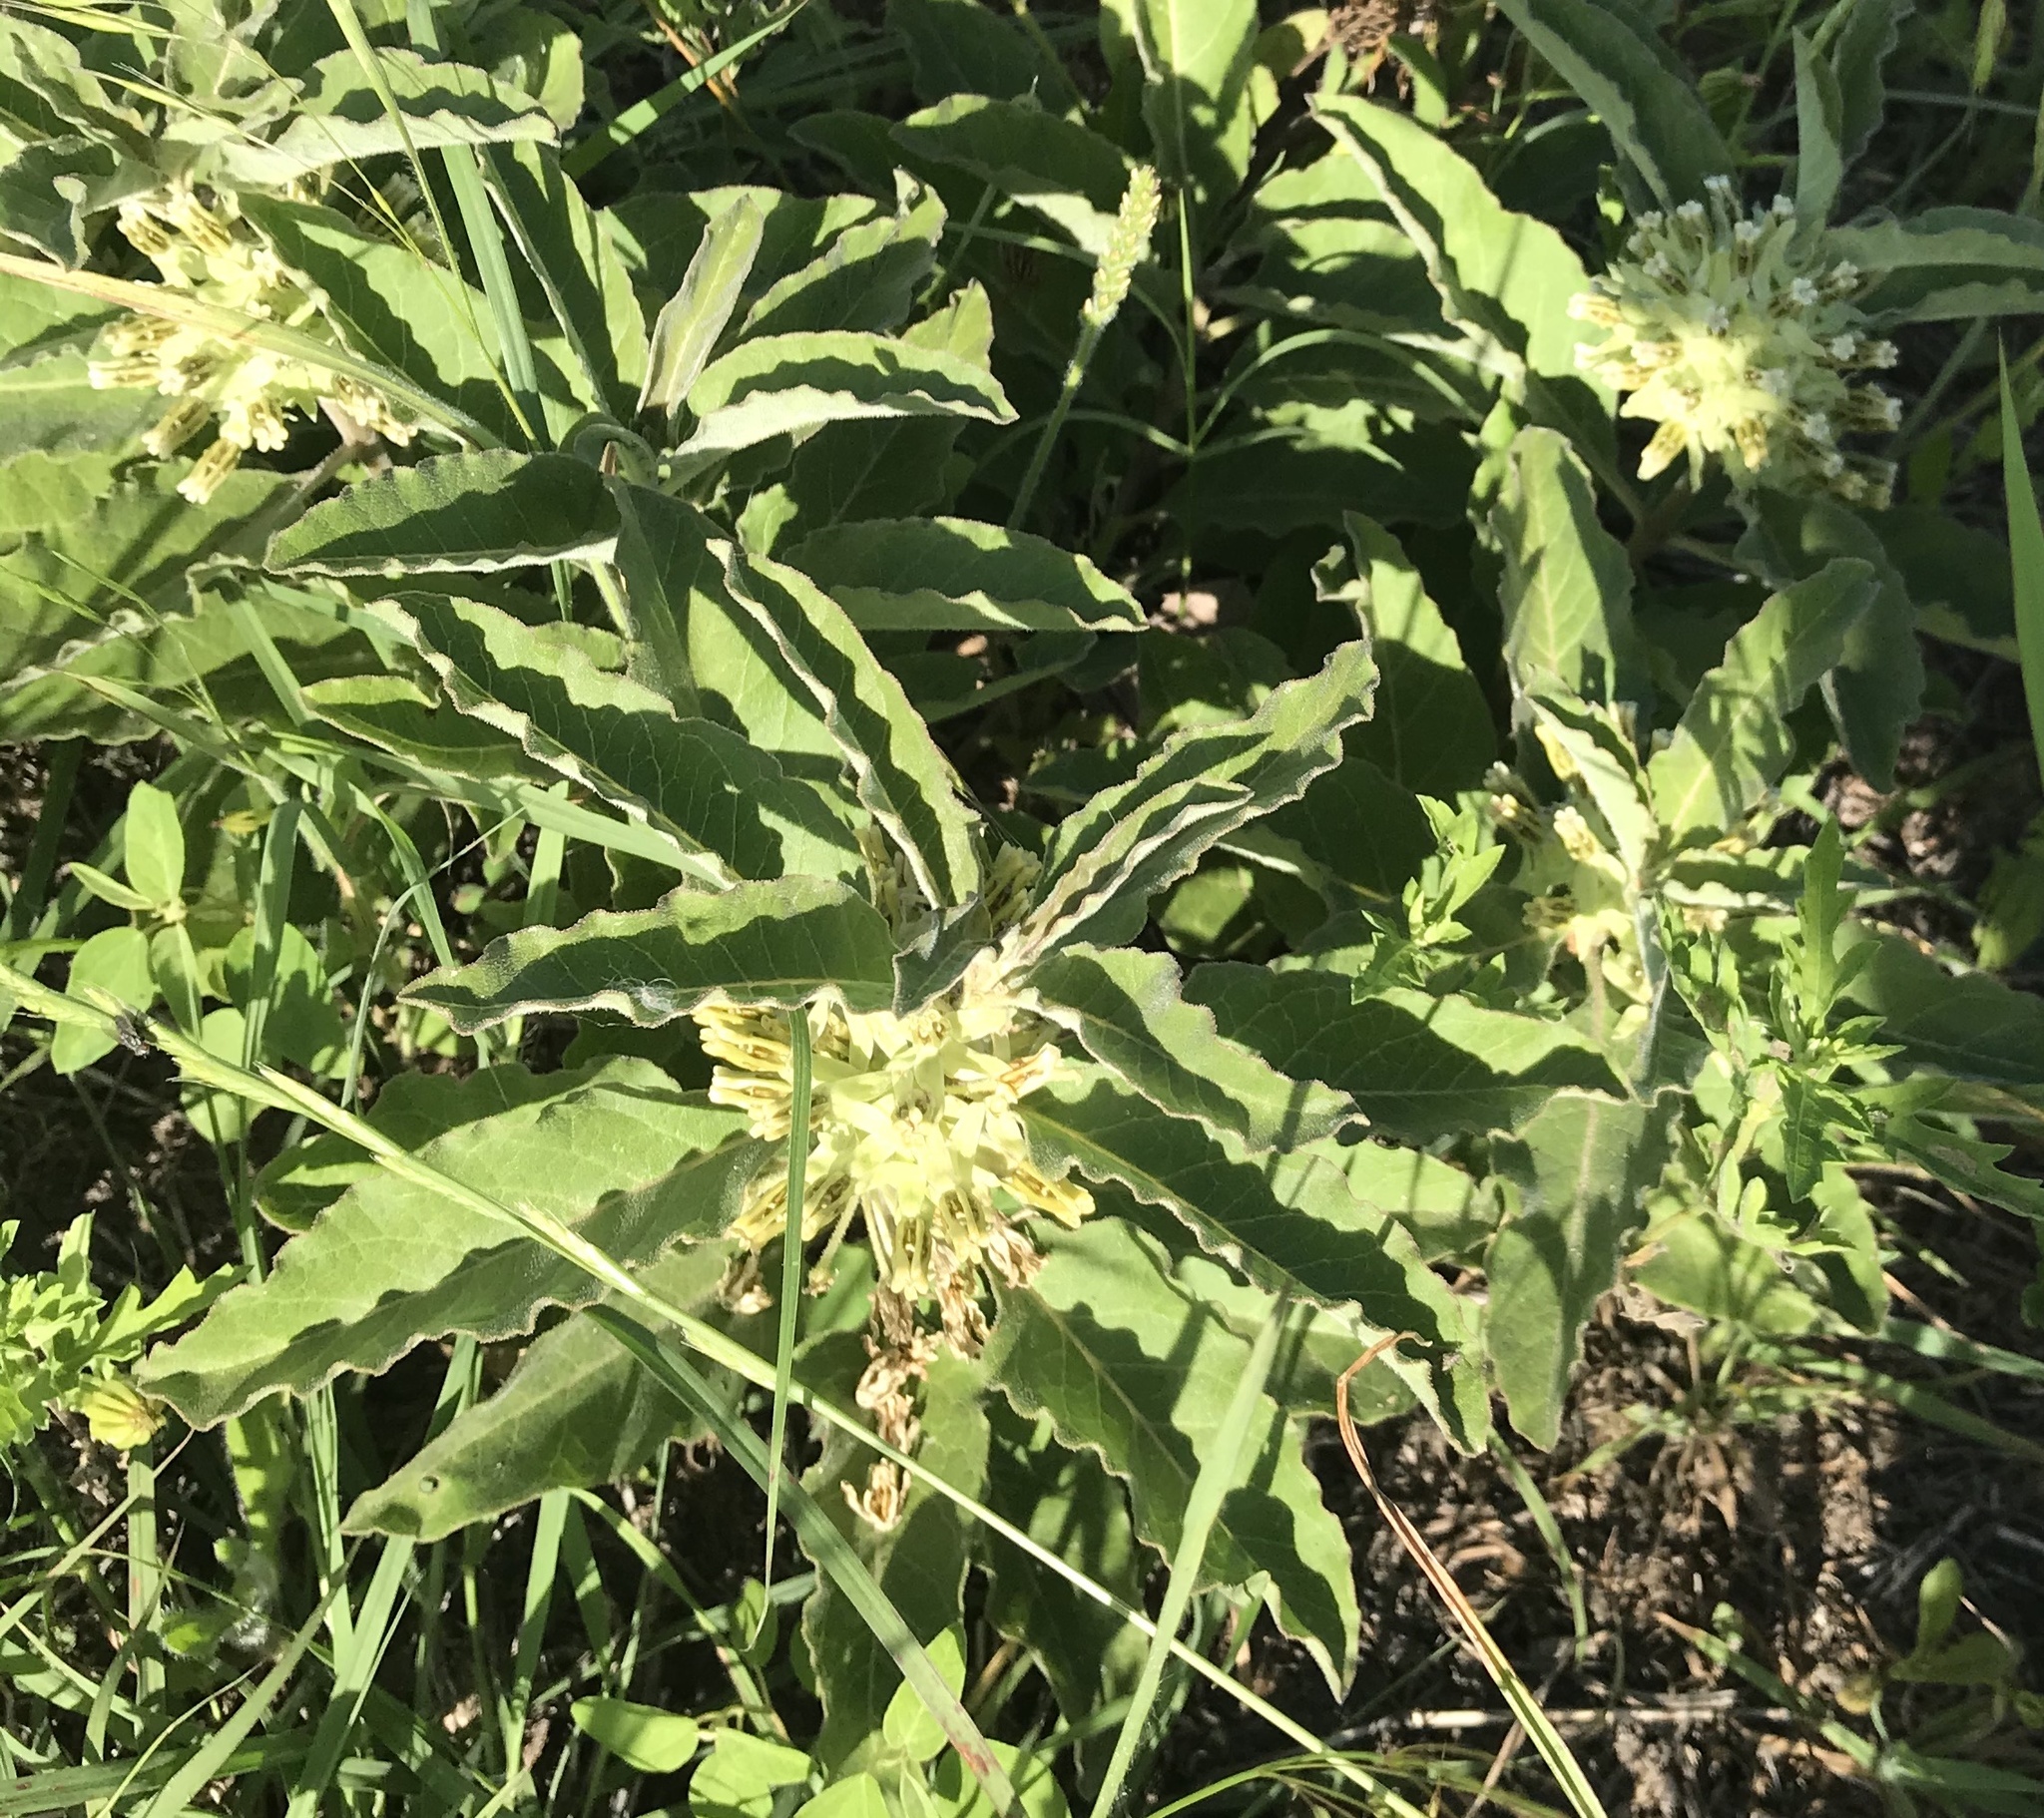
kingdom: Plantae
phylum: Tracheophyta
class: Magnoliopsida
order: Gentianales
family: Apocynaceae
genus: Asclepias
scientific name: Asclepias oenotheroides
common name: Zizotes milkweed
